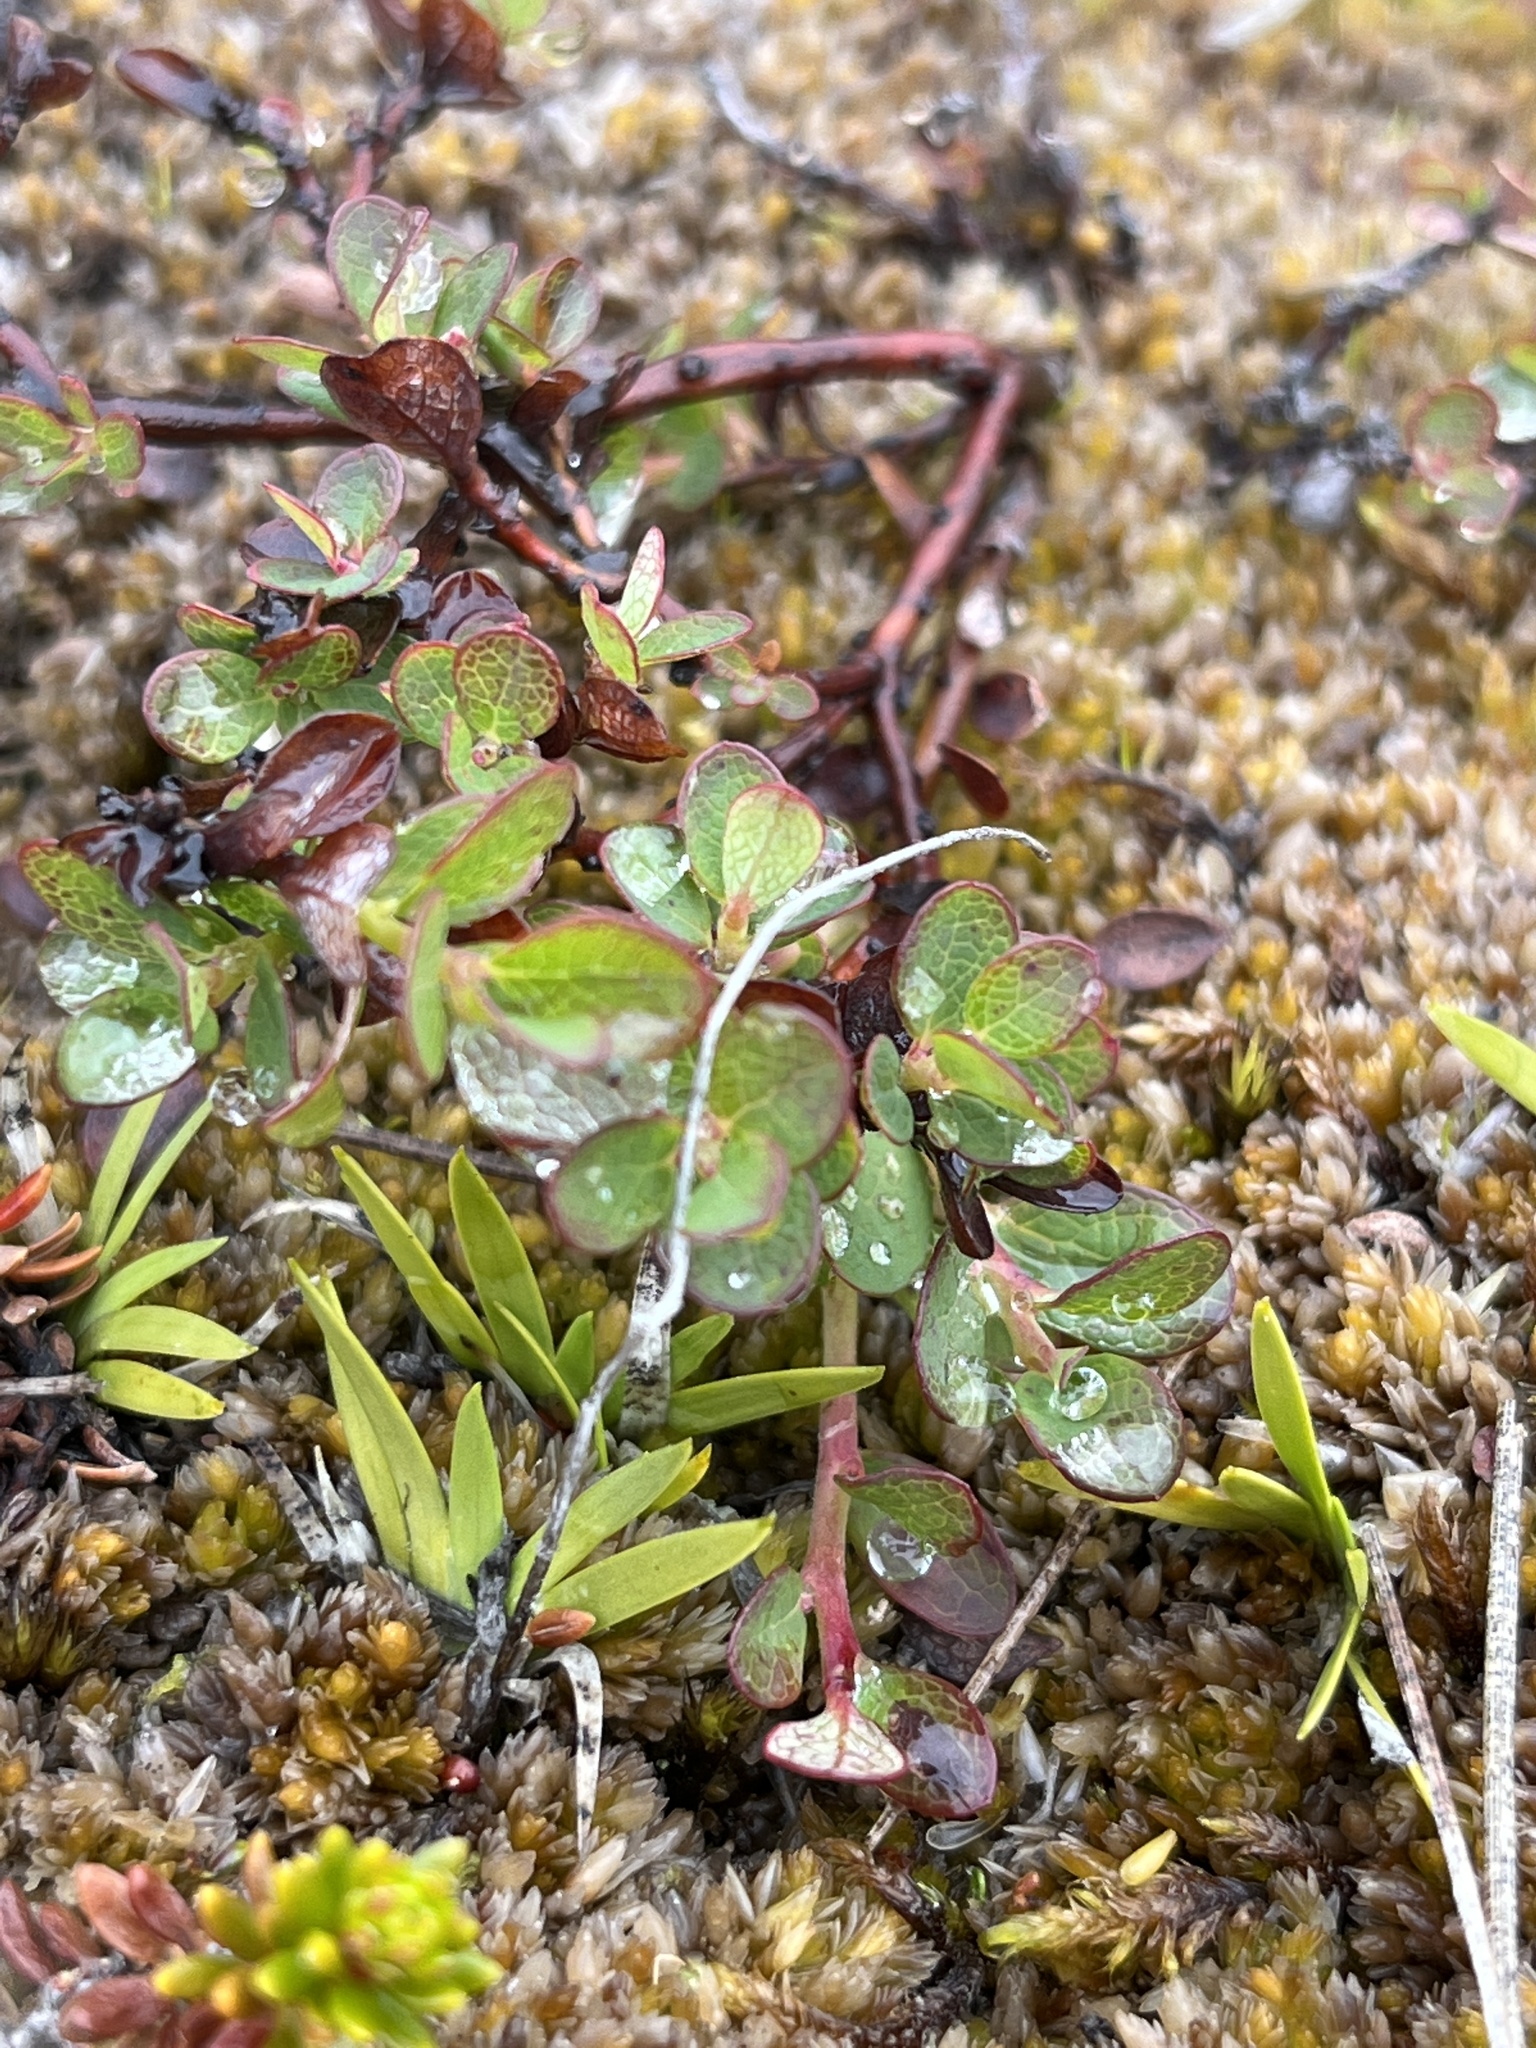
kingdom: Plantae
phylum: Tracheophyta
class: Magnoliopsida
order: Ericales
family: Ericaceae
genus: Vaccinium
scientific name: Vaccinium uliginosum
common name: Bog bilberry
